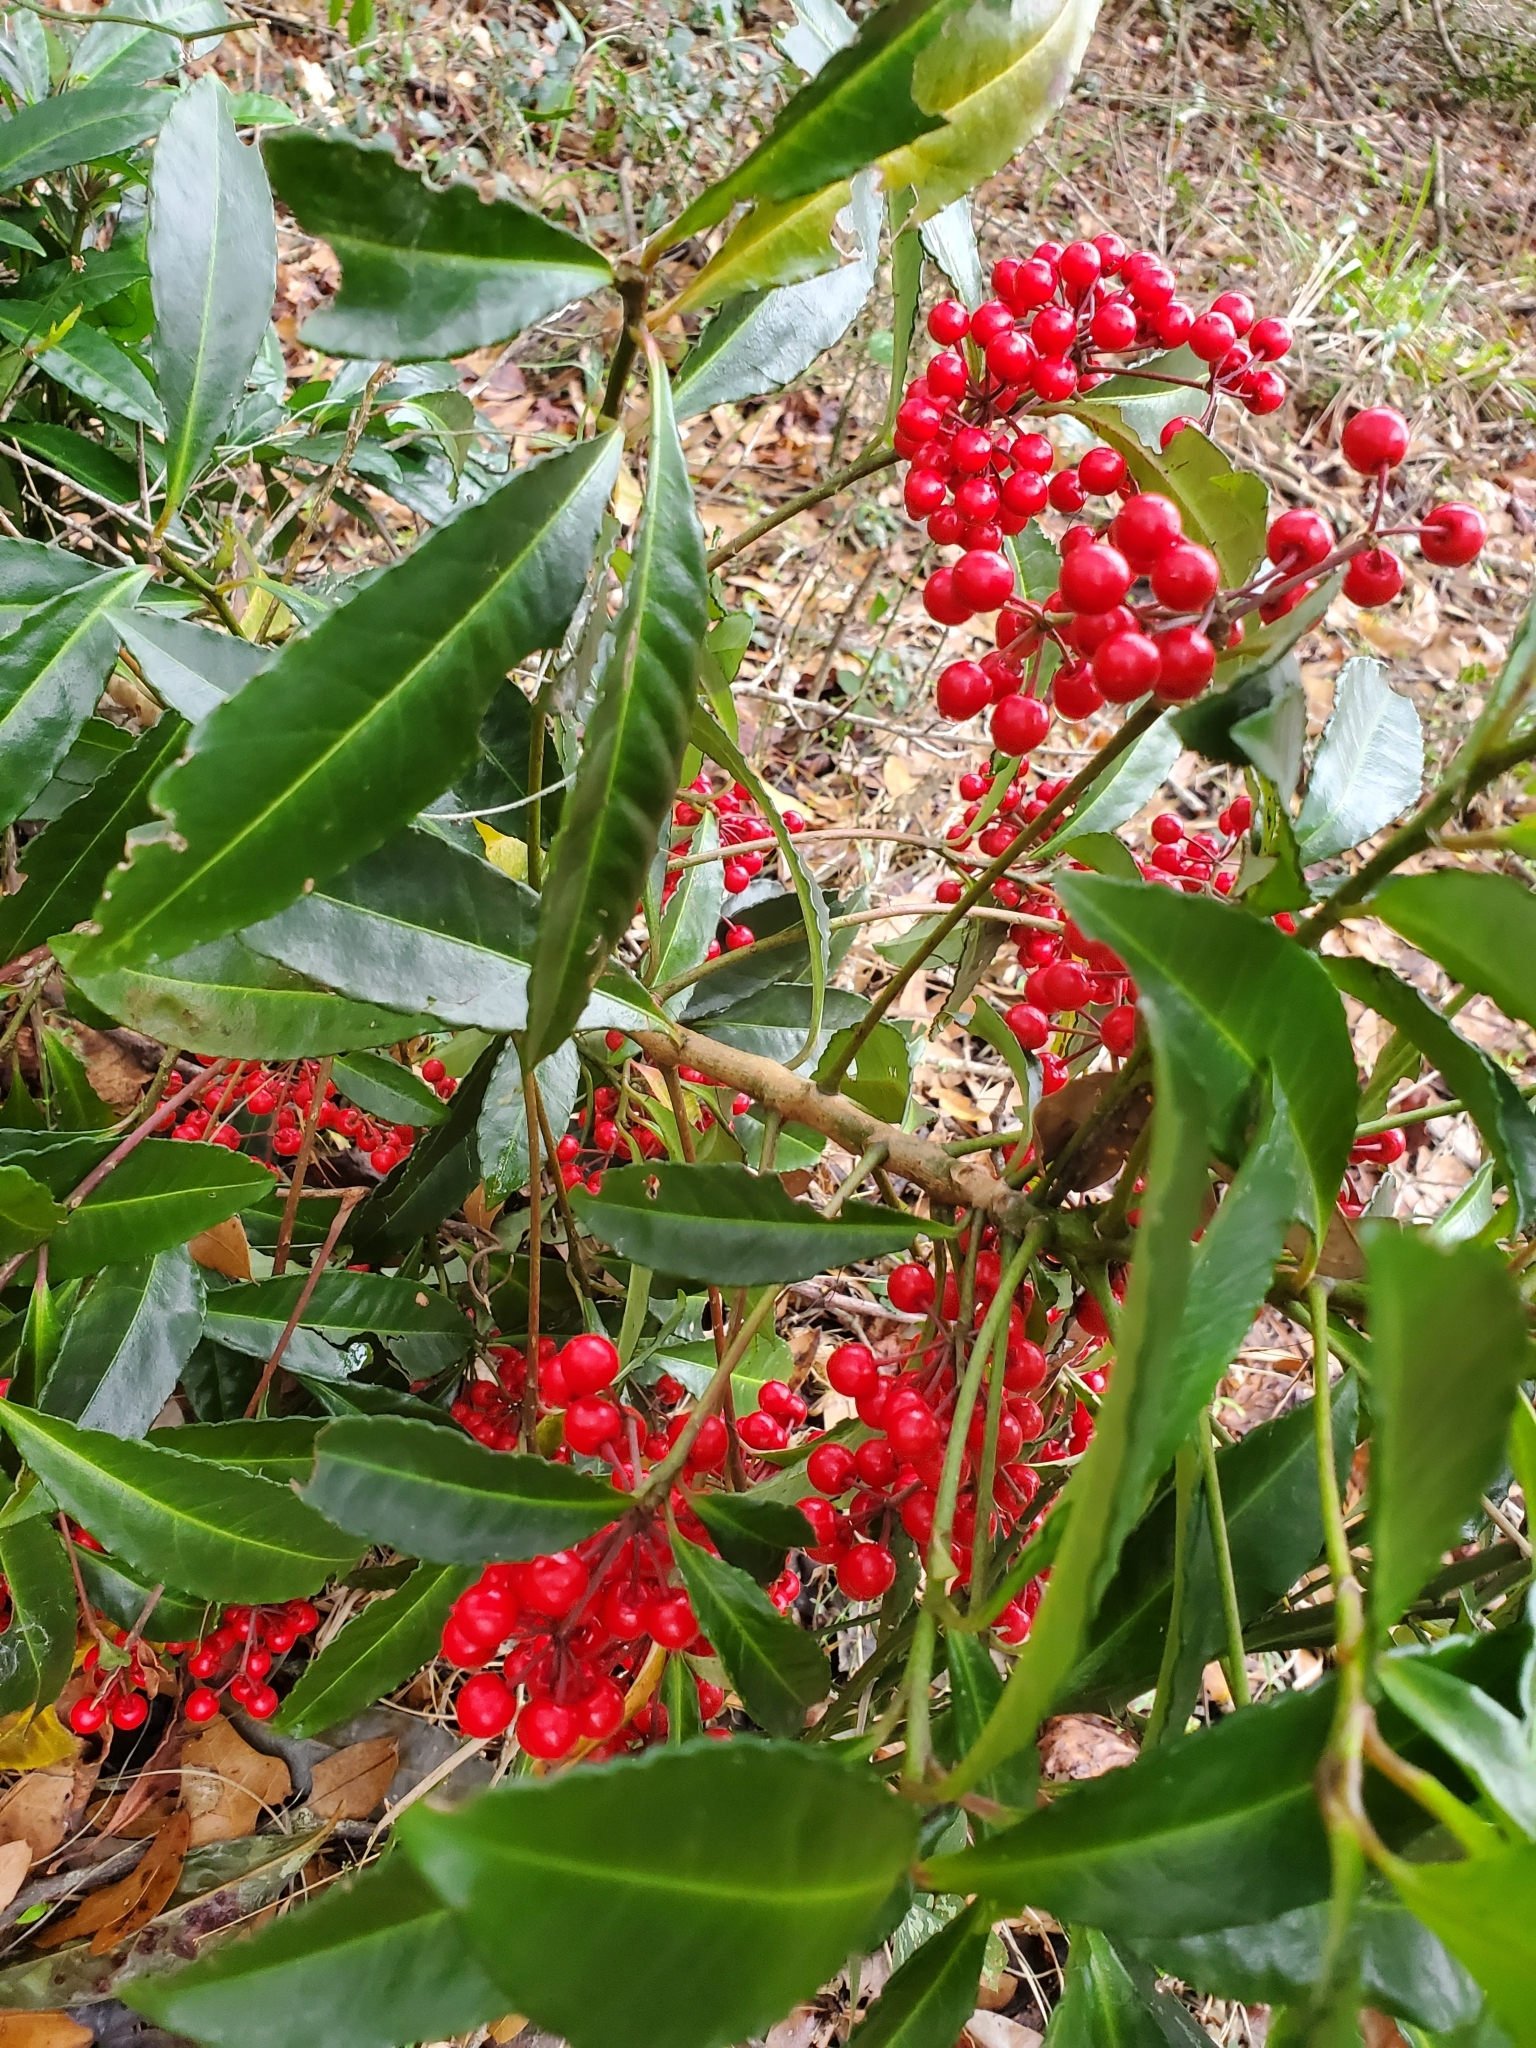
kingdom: Plantae
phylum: Tracheophyta
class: Magnoliopsida
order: Ericales
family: Primulaceae
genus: Ardisia
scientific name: Ardisia crenata
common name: Hen's eyes
